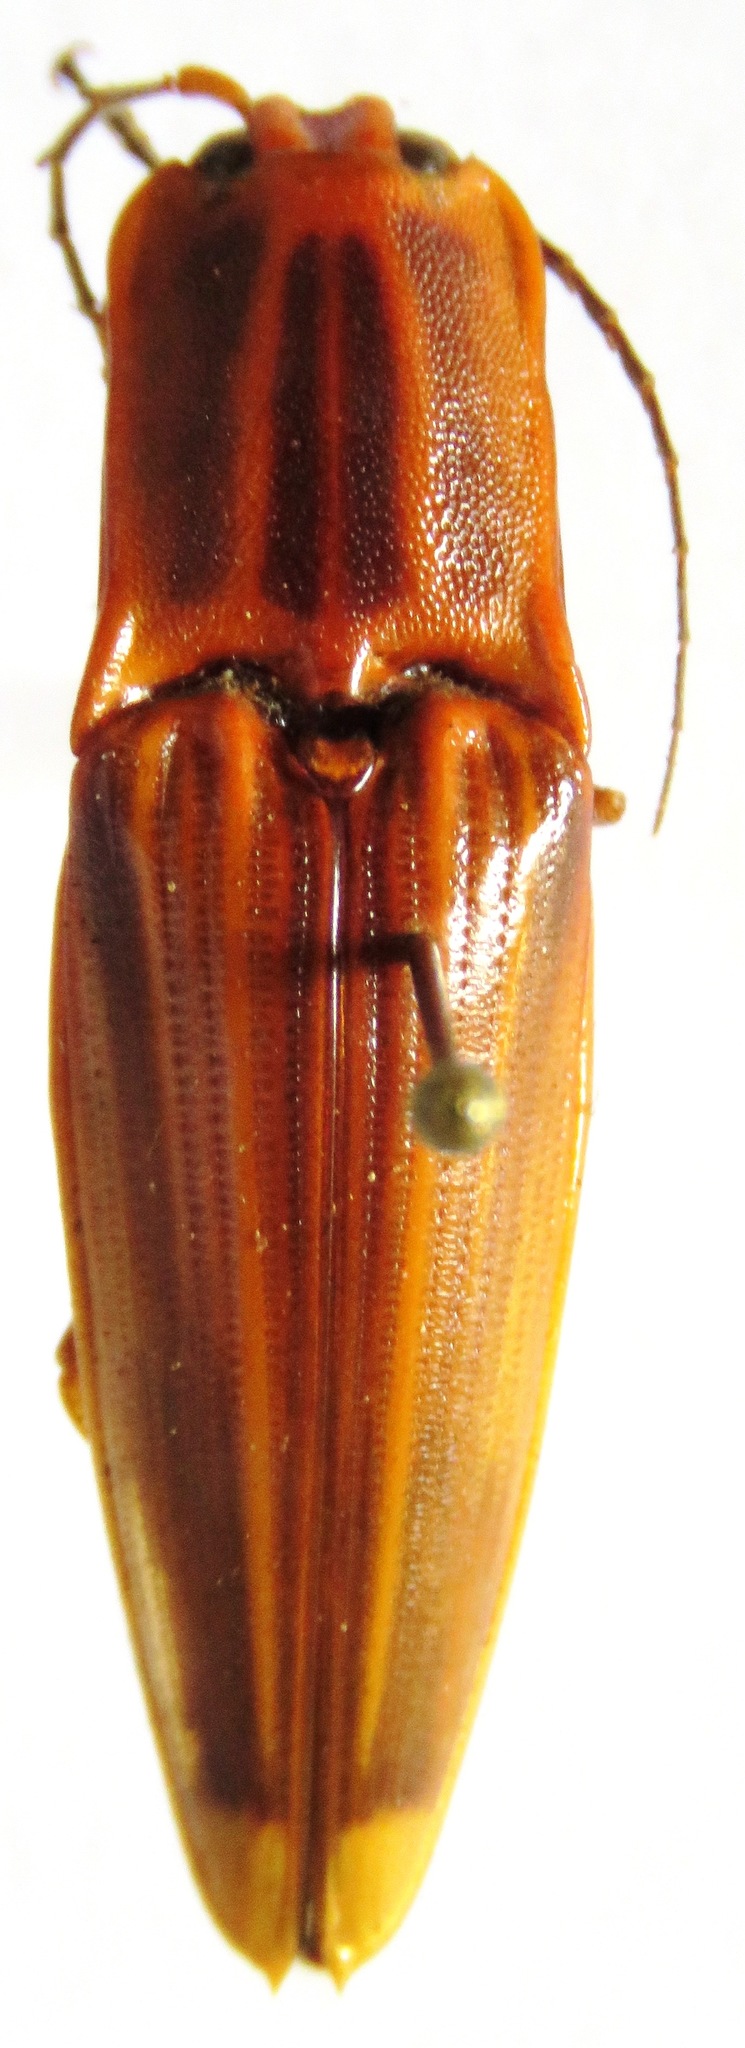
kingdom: Animalia
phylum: Arthropoda
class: Insecta
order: Coleoptera
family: Elateridae
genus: Semiotus
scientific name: Semiotus ligneus
